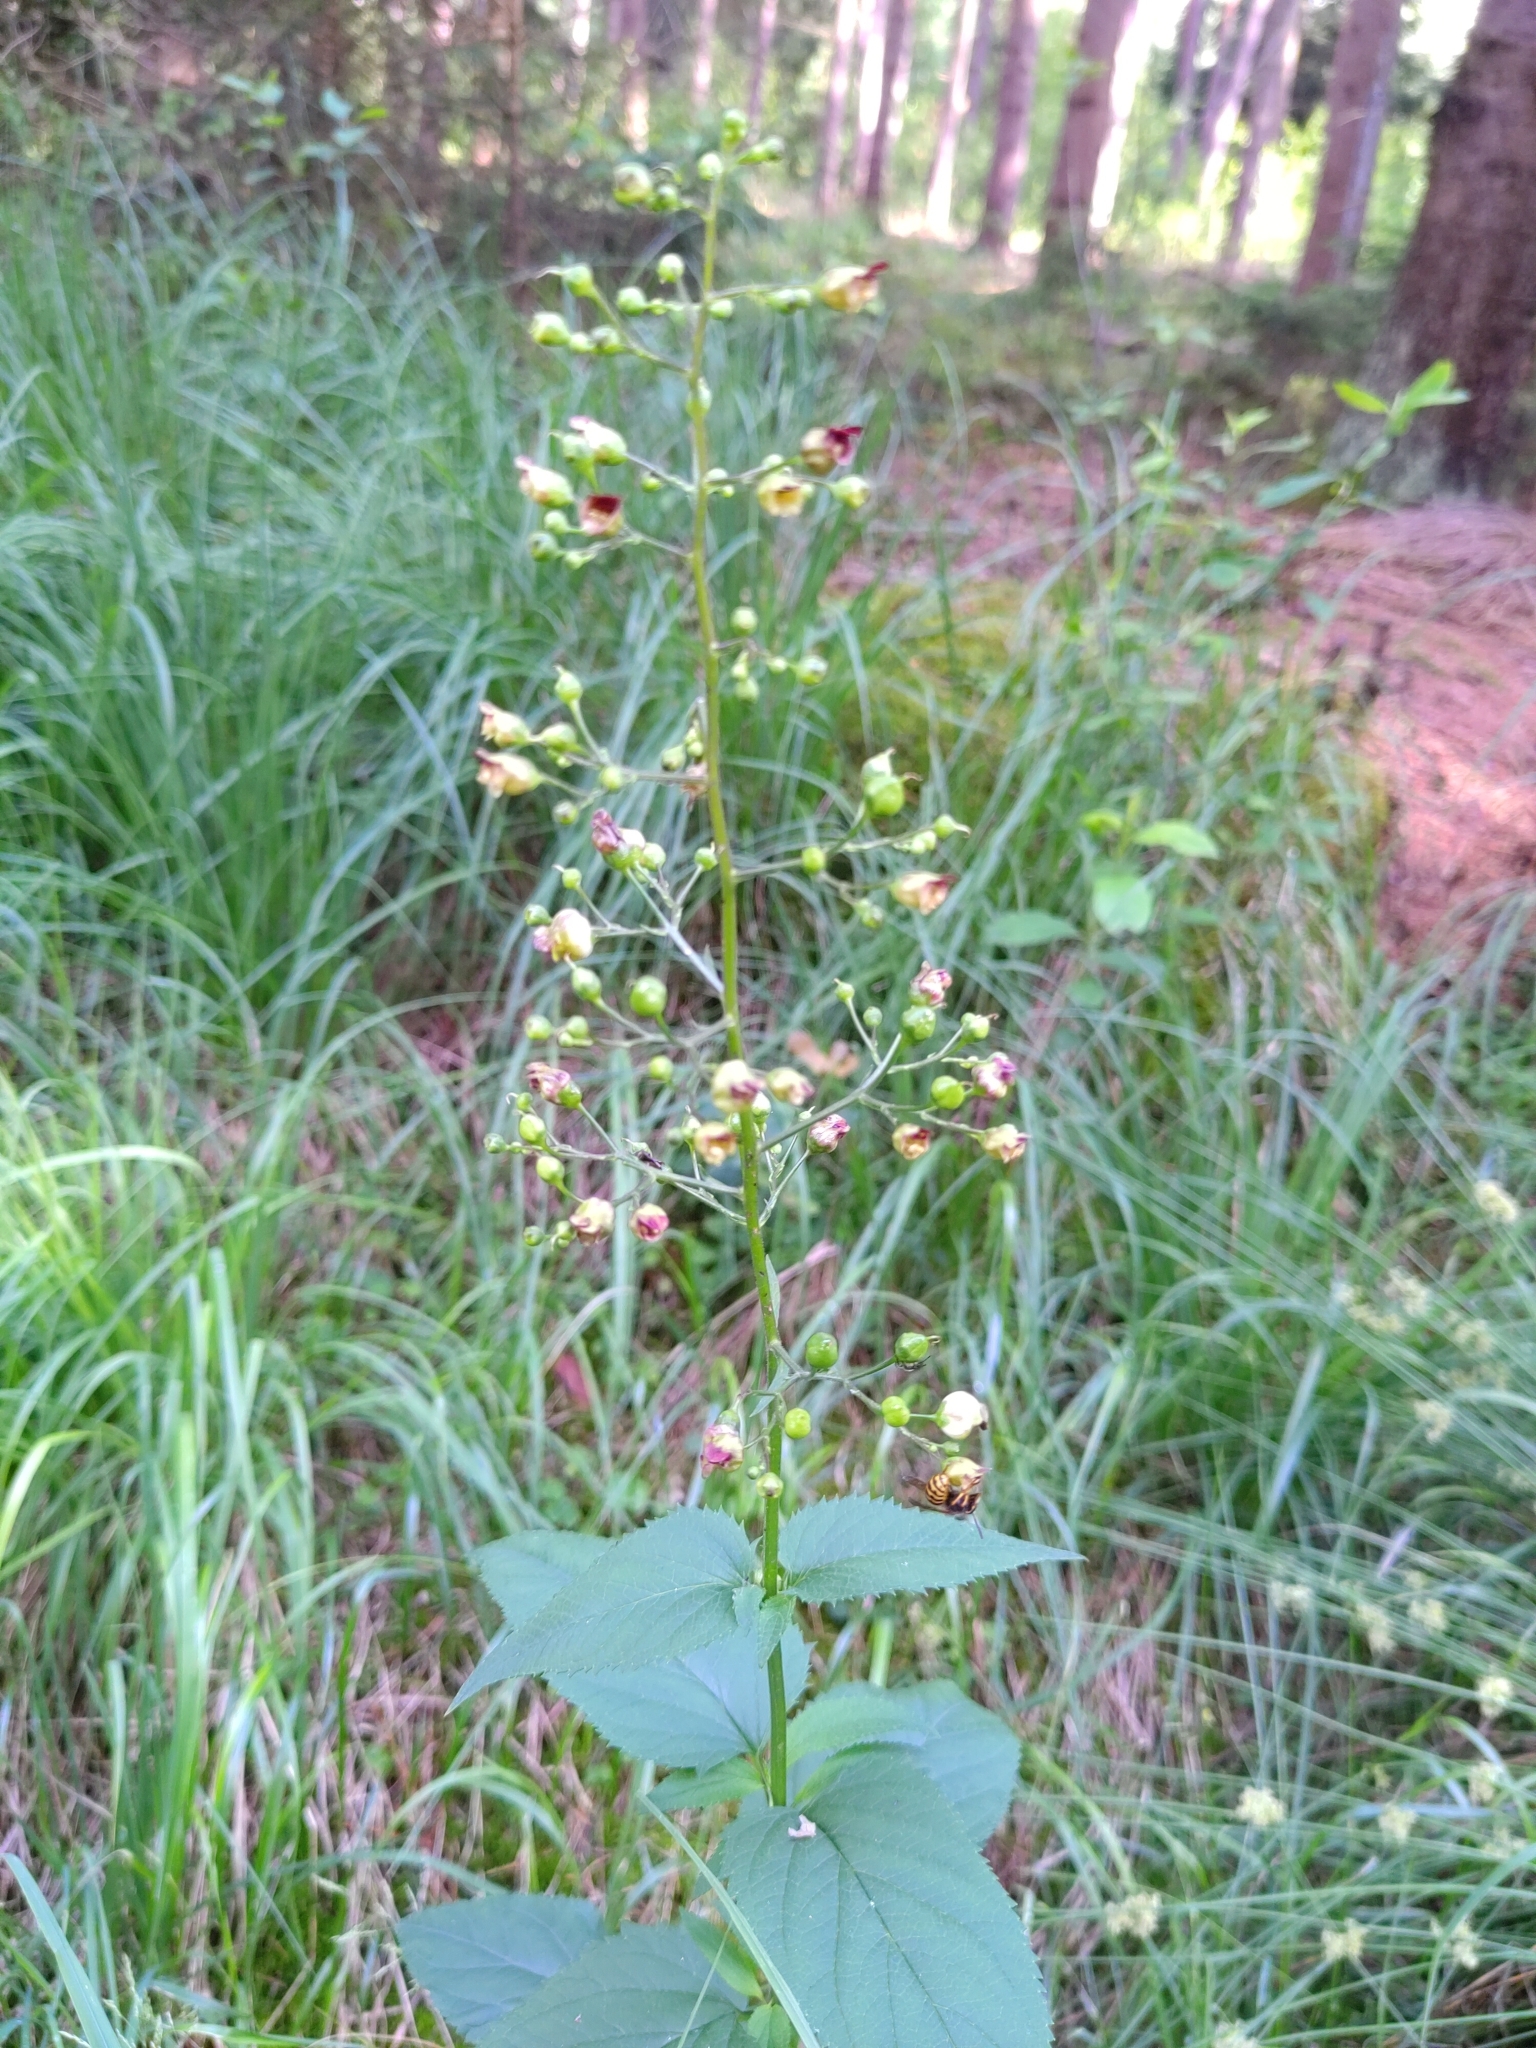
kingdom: Plantae
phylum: Tracheophyta
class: Magnoliopsida
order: Lamiales
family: Scrophulariaceae
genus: Scrophularia
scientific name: Scrophularia nodosa
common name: Common figwort
